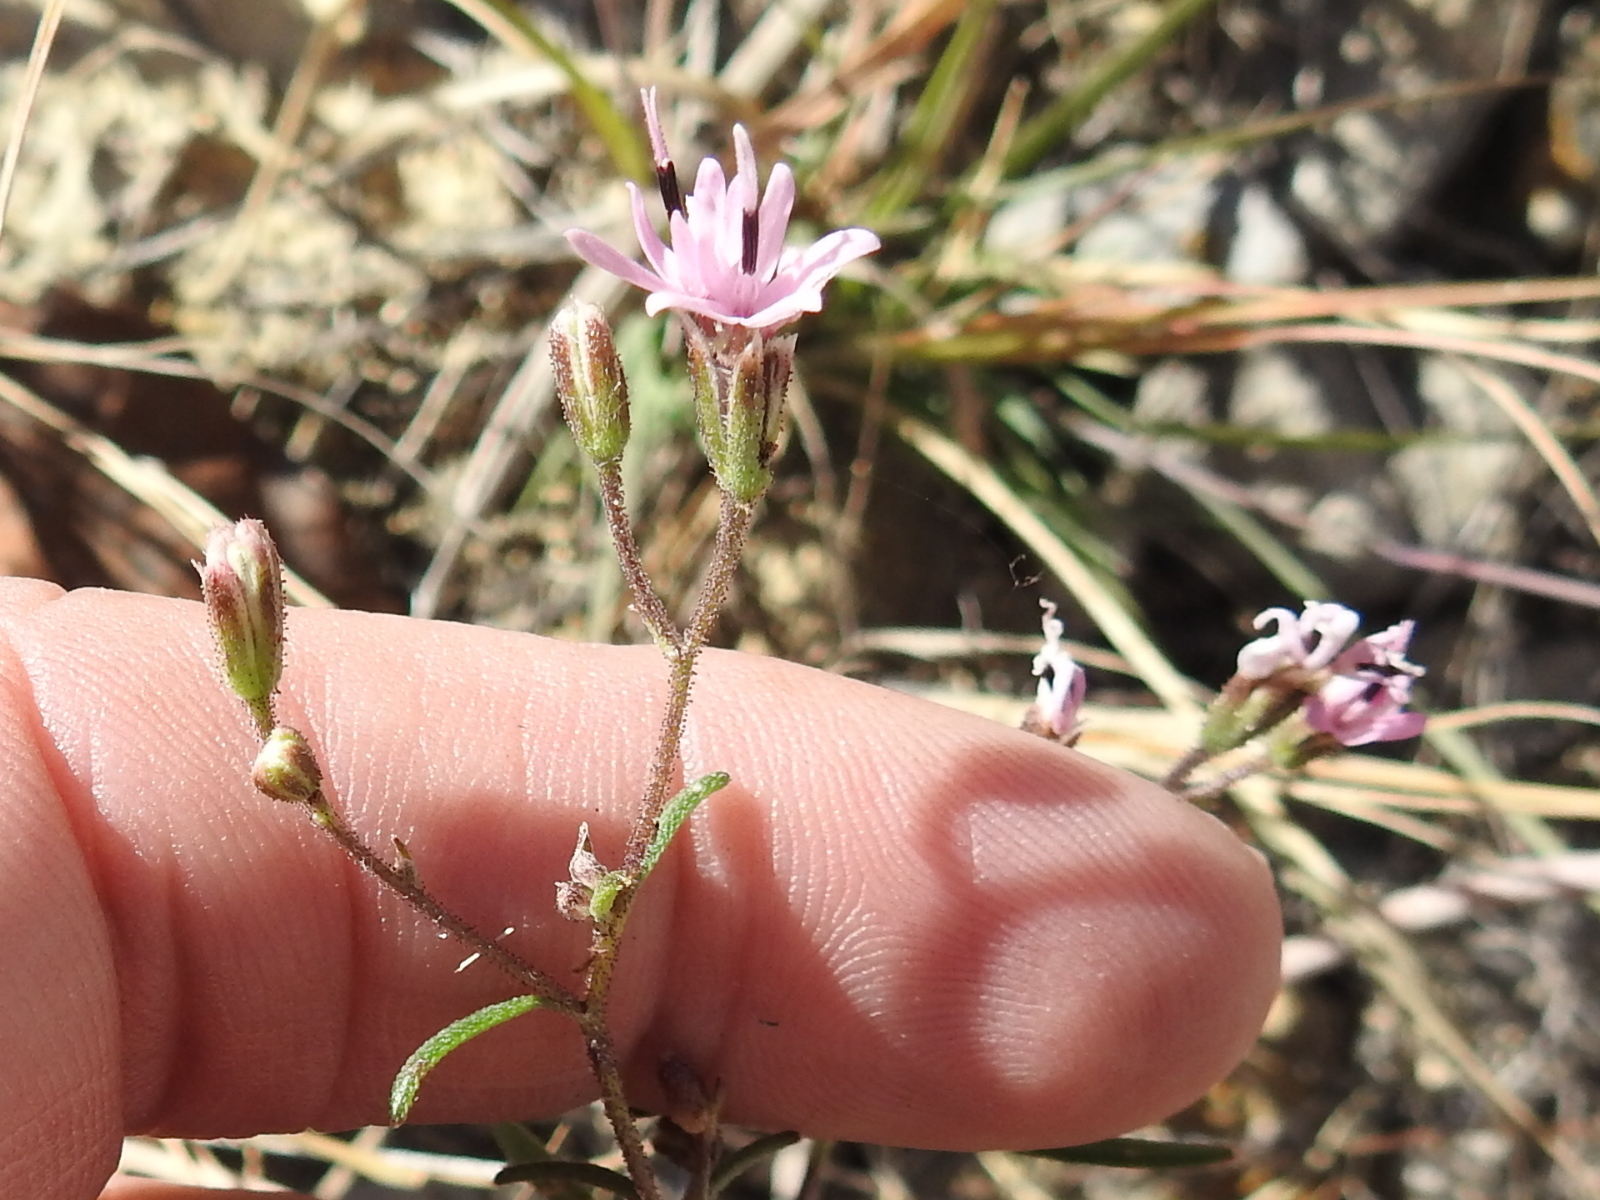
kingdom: Plantae
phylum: Tracheophyta
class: Magnoliopsida
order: Asterales
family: Asteraceae
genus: Palafoxia
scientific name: Palafoxia callosa
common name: Small palafox
